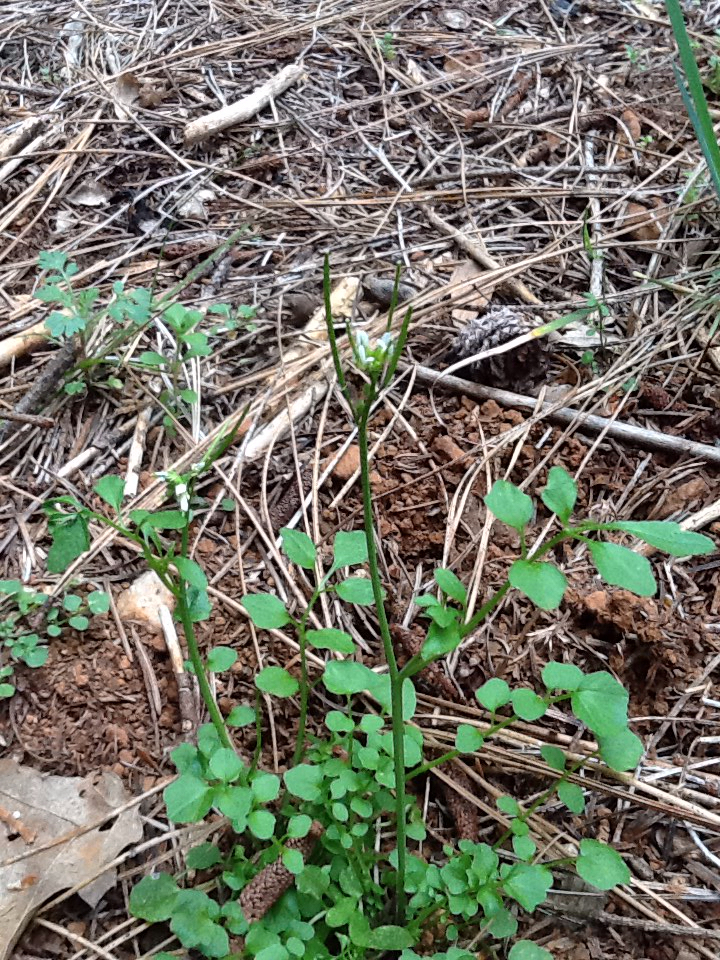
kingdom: Plantae
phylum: Tracheophyta
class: Magnoliopsida
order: Brassicales
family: Brassicaceae
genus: Cardamine
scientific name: Cardamine hirsuta
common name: Hairy bittercress
